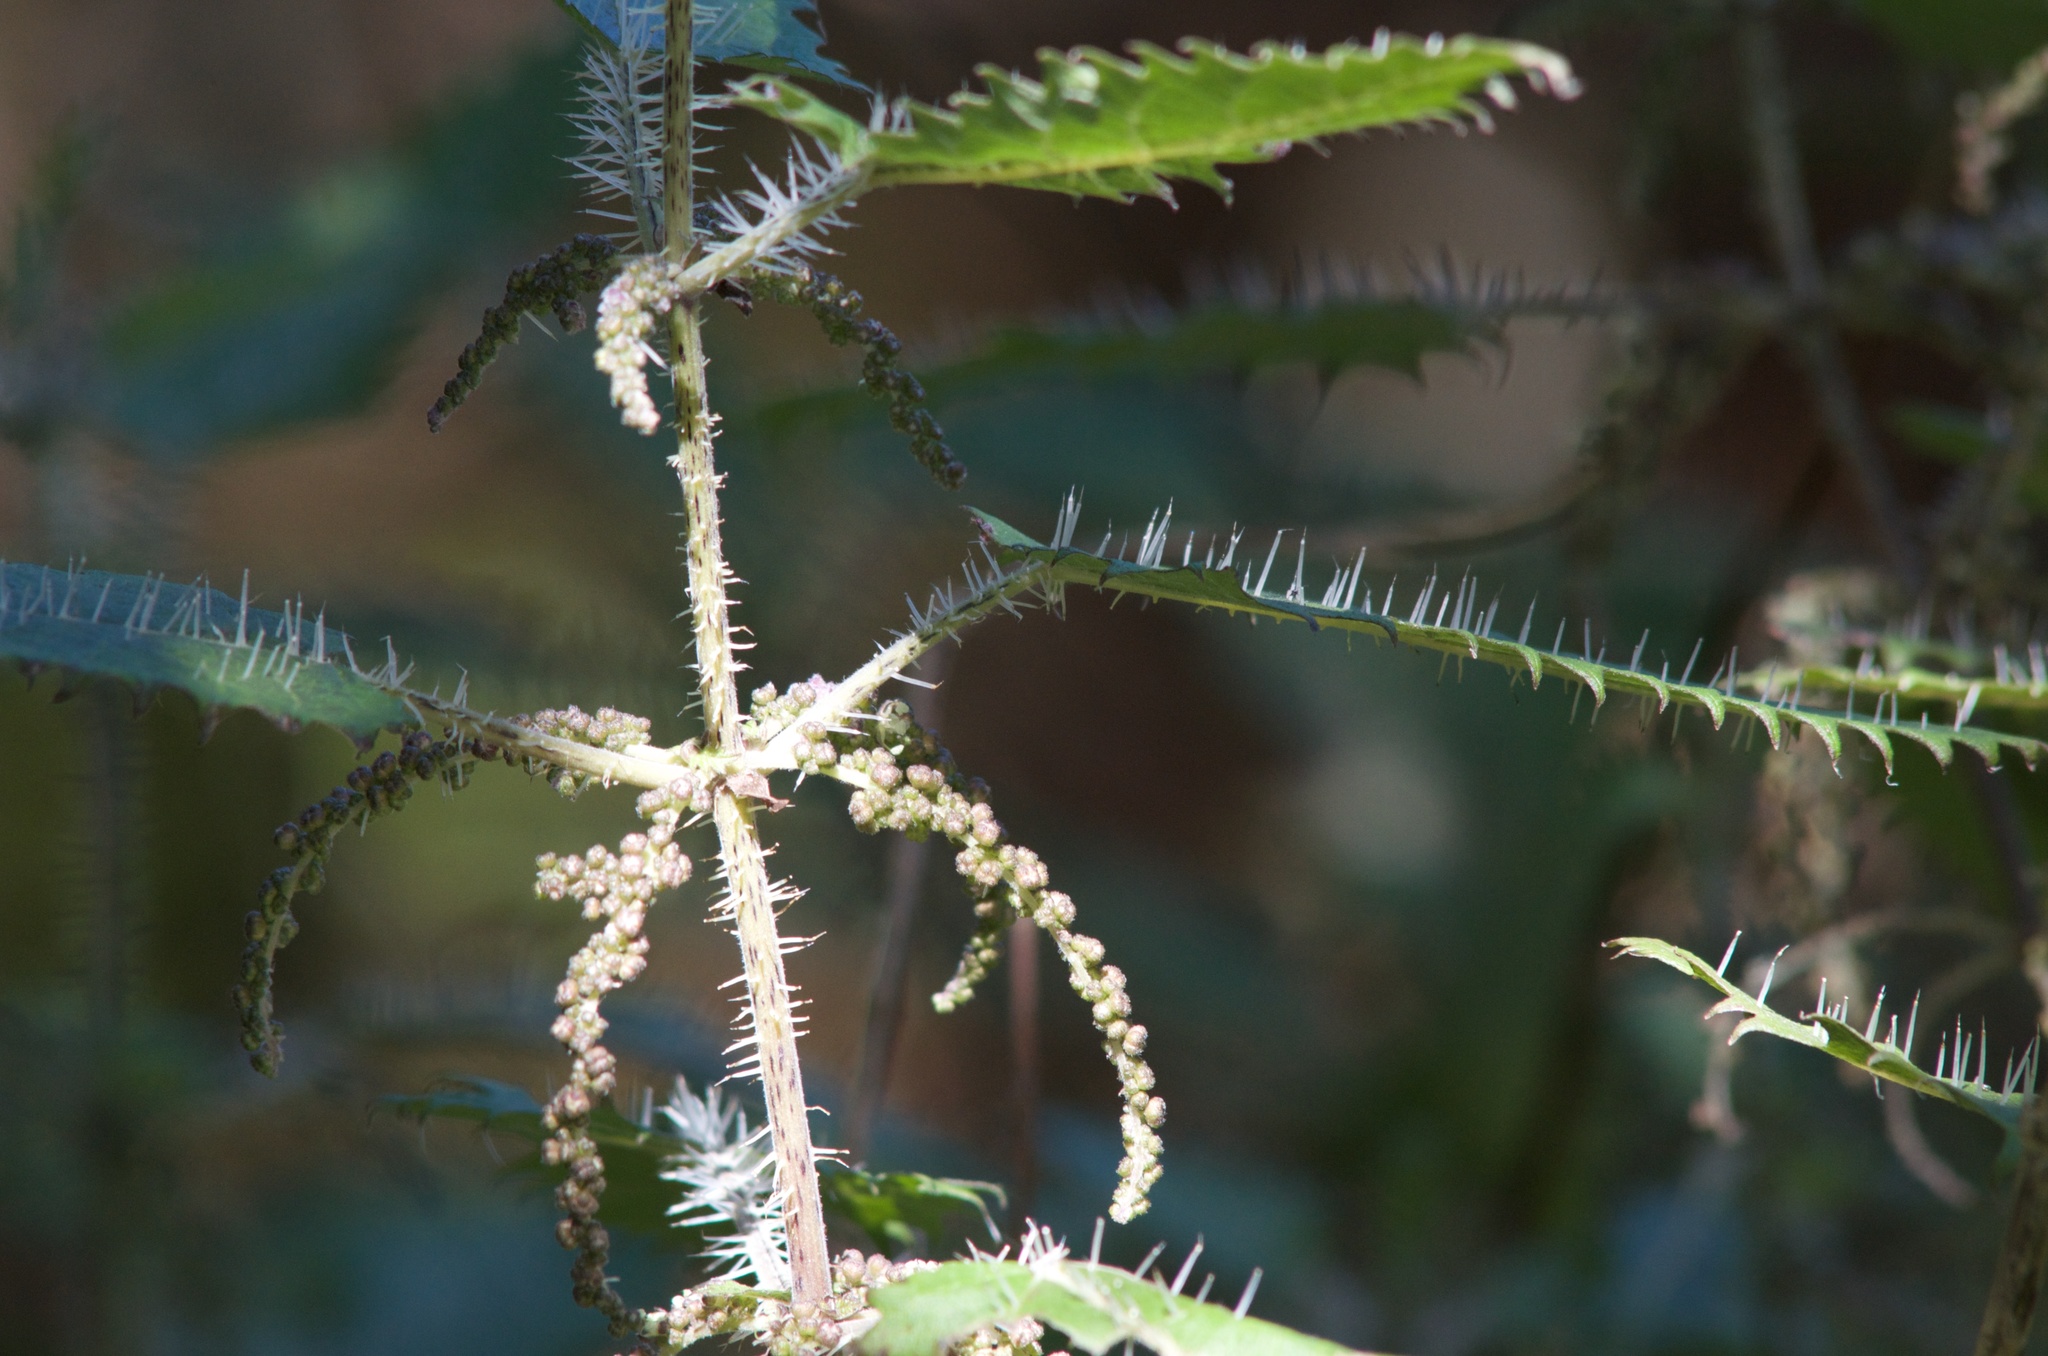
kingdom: Plantae
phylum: Tracheophyta
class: Magnoliopsida
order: Rosales
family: Urticaceae
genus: Urtica
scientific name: Urtica ferox
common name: Tree nettle
